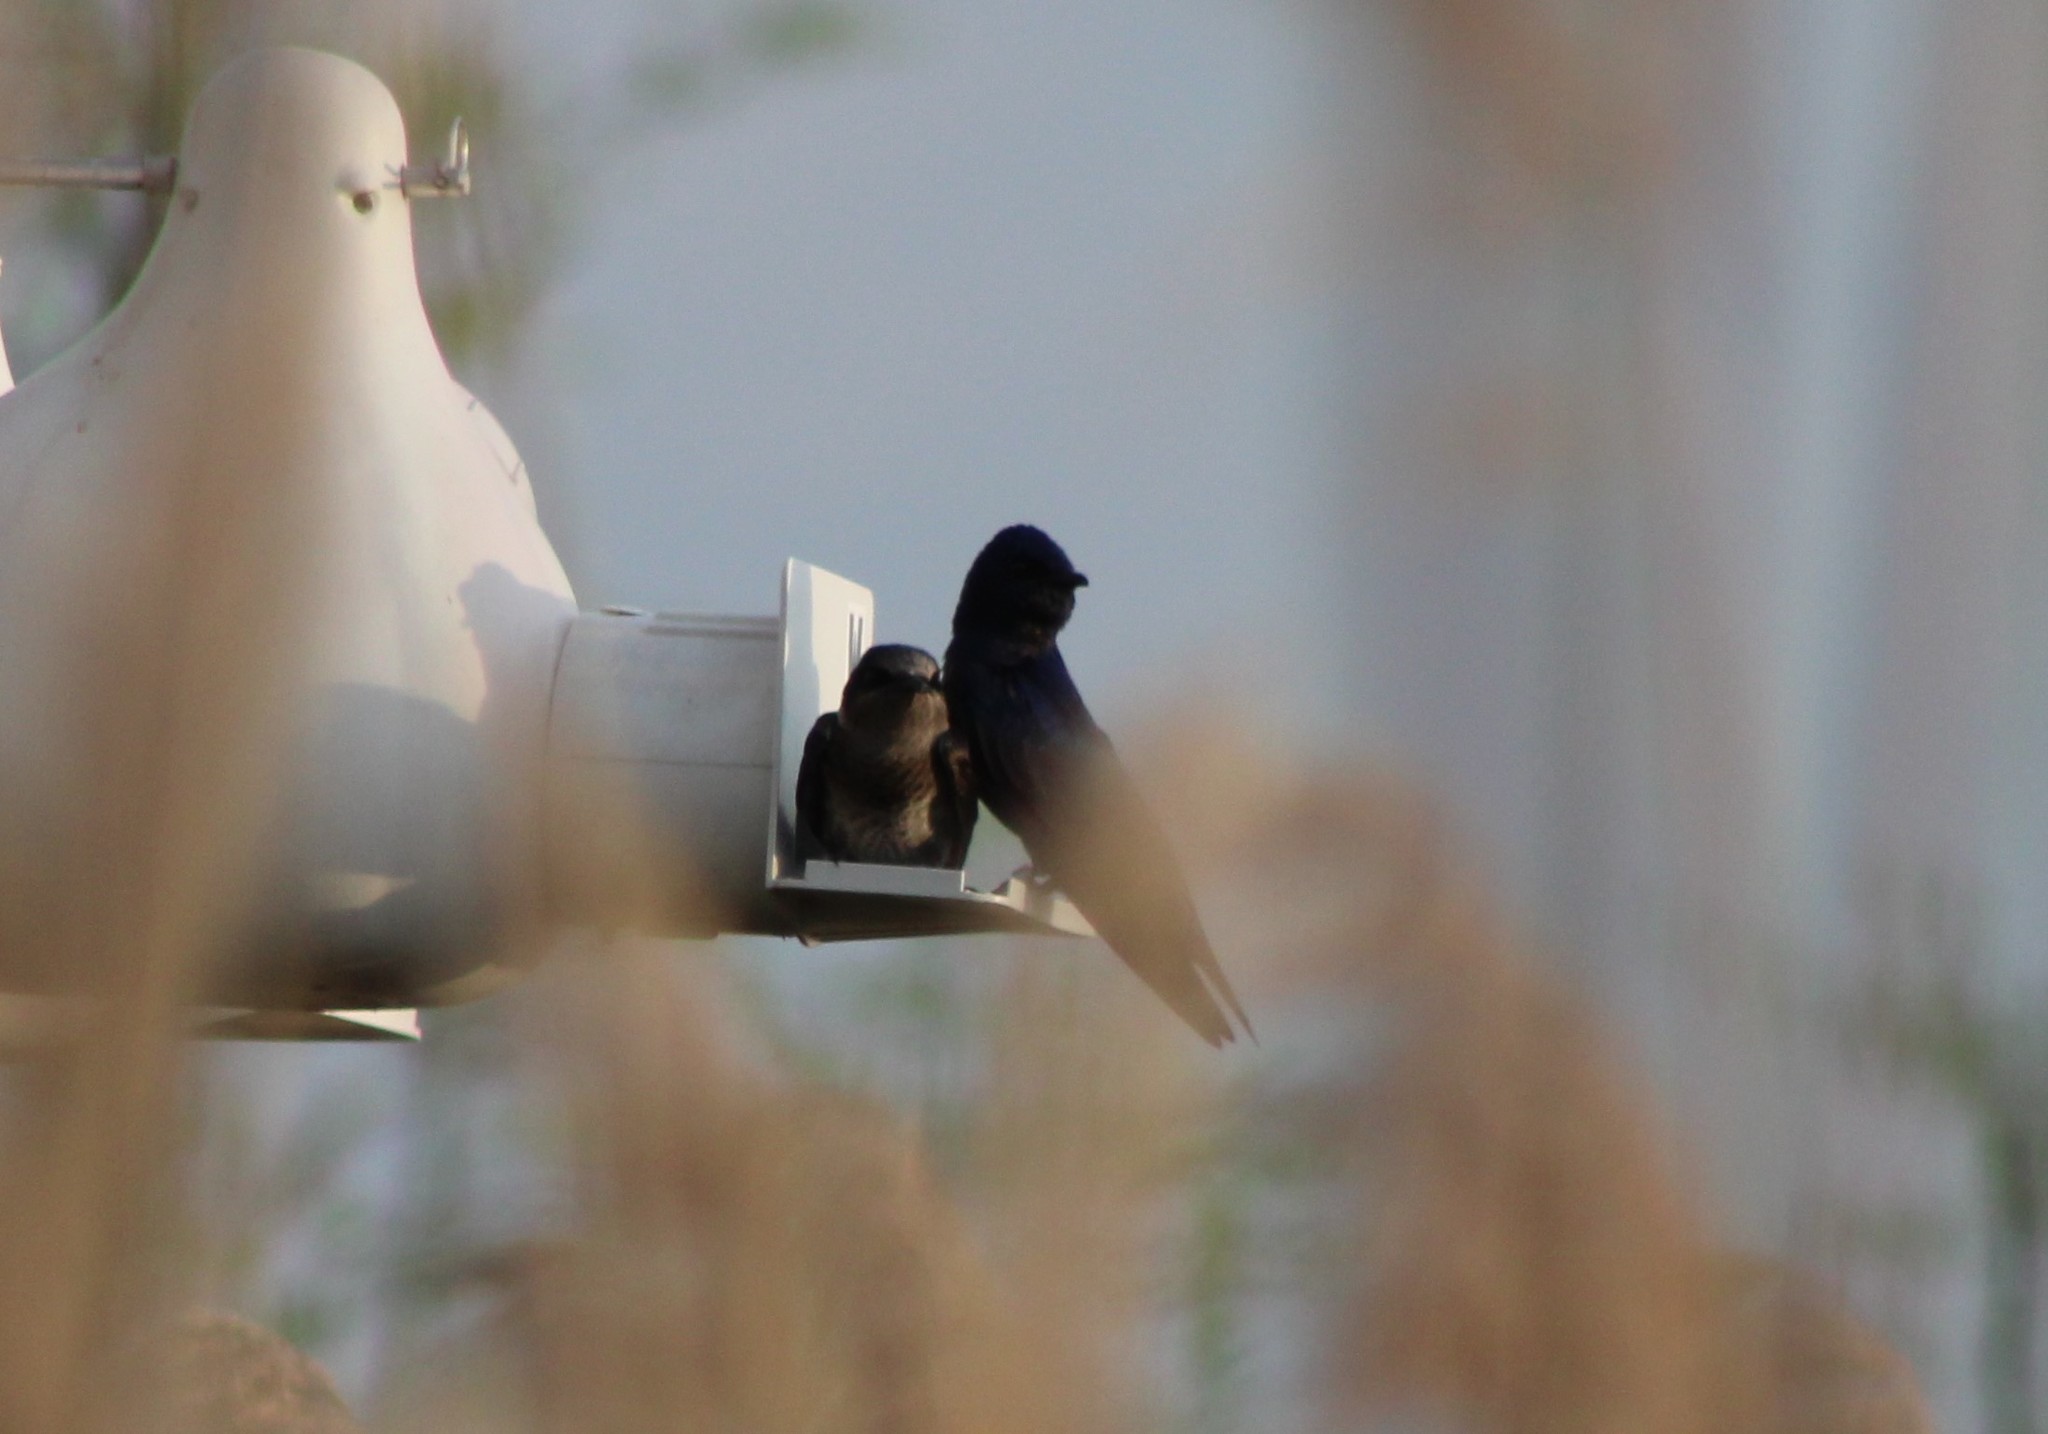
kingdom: Animalia
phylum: Chordata
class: Aves
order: Passeriformes
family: Hirundinidae
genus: Progne
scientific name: Progne subis
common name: Purple martin
